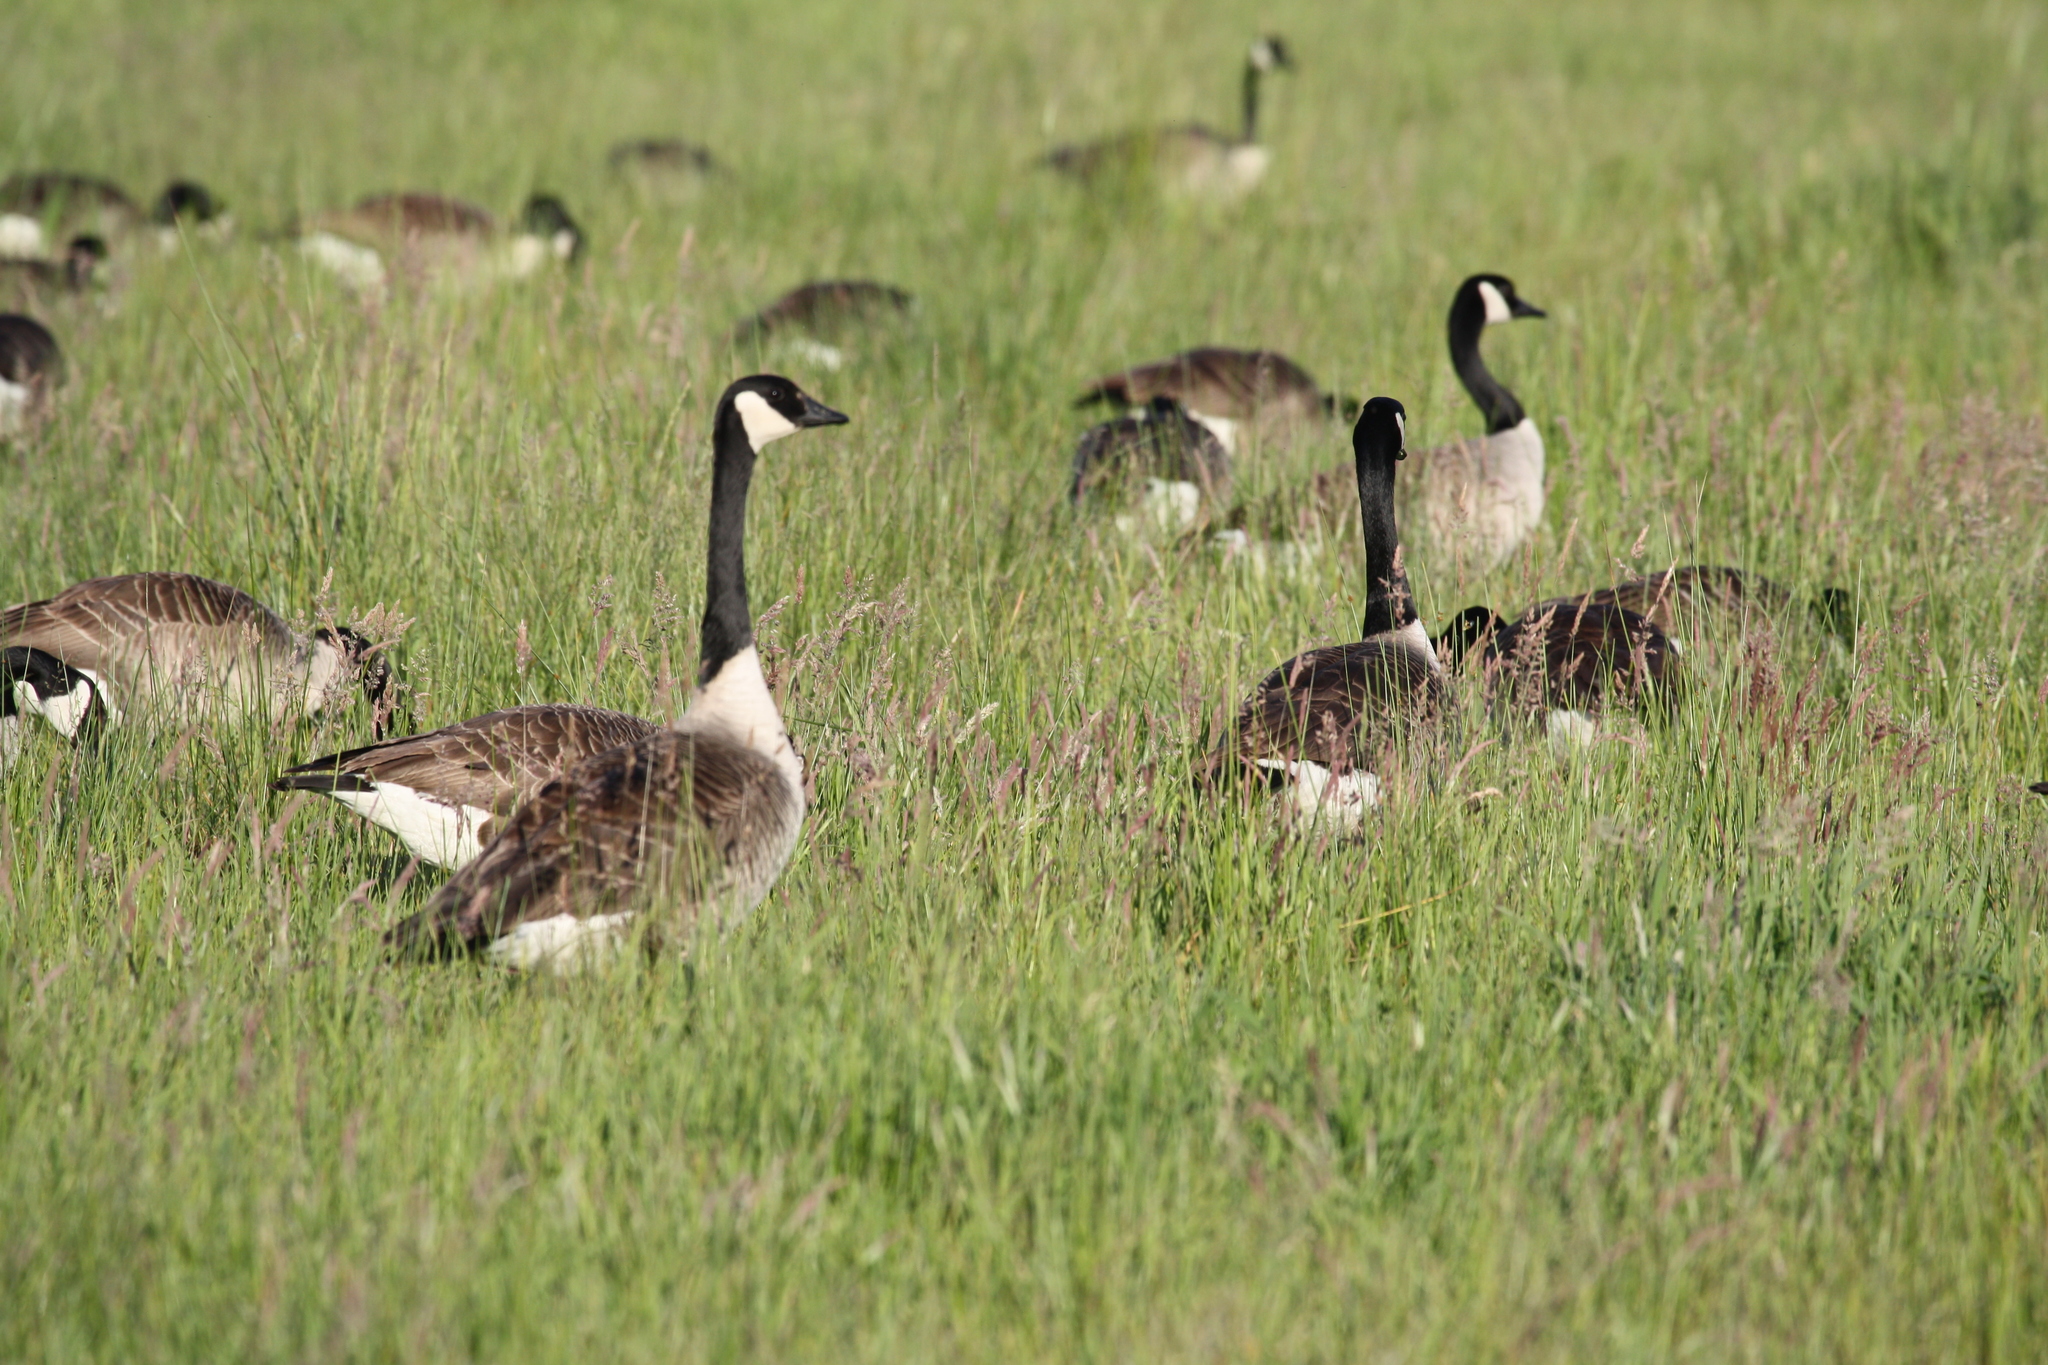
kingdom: Animalia
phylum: Chordata
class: Aves
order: Anseriformes
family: Anatidae
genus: Branta
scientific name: Branta canadensis
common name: Canada goose
